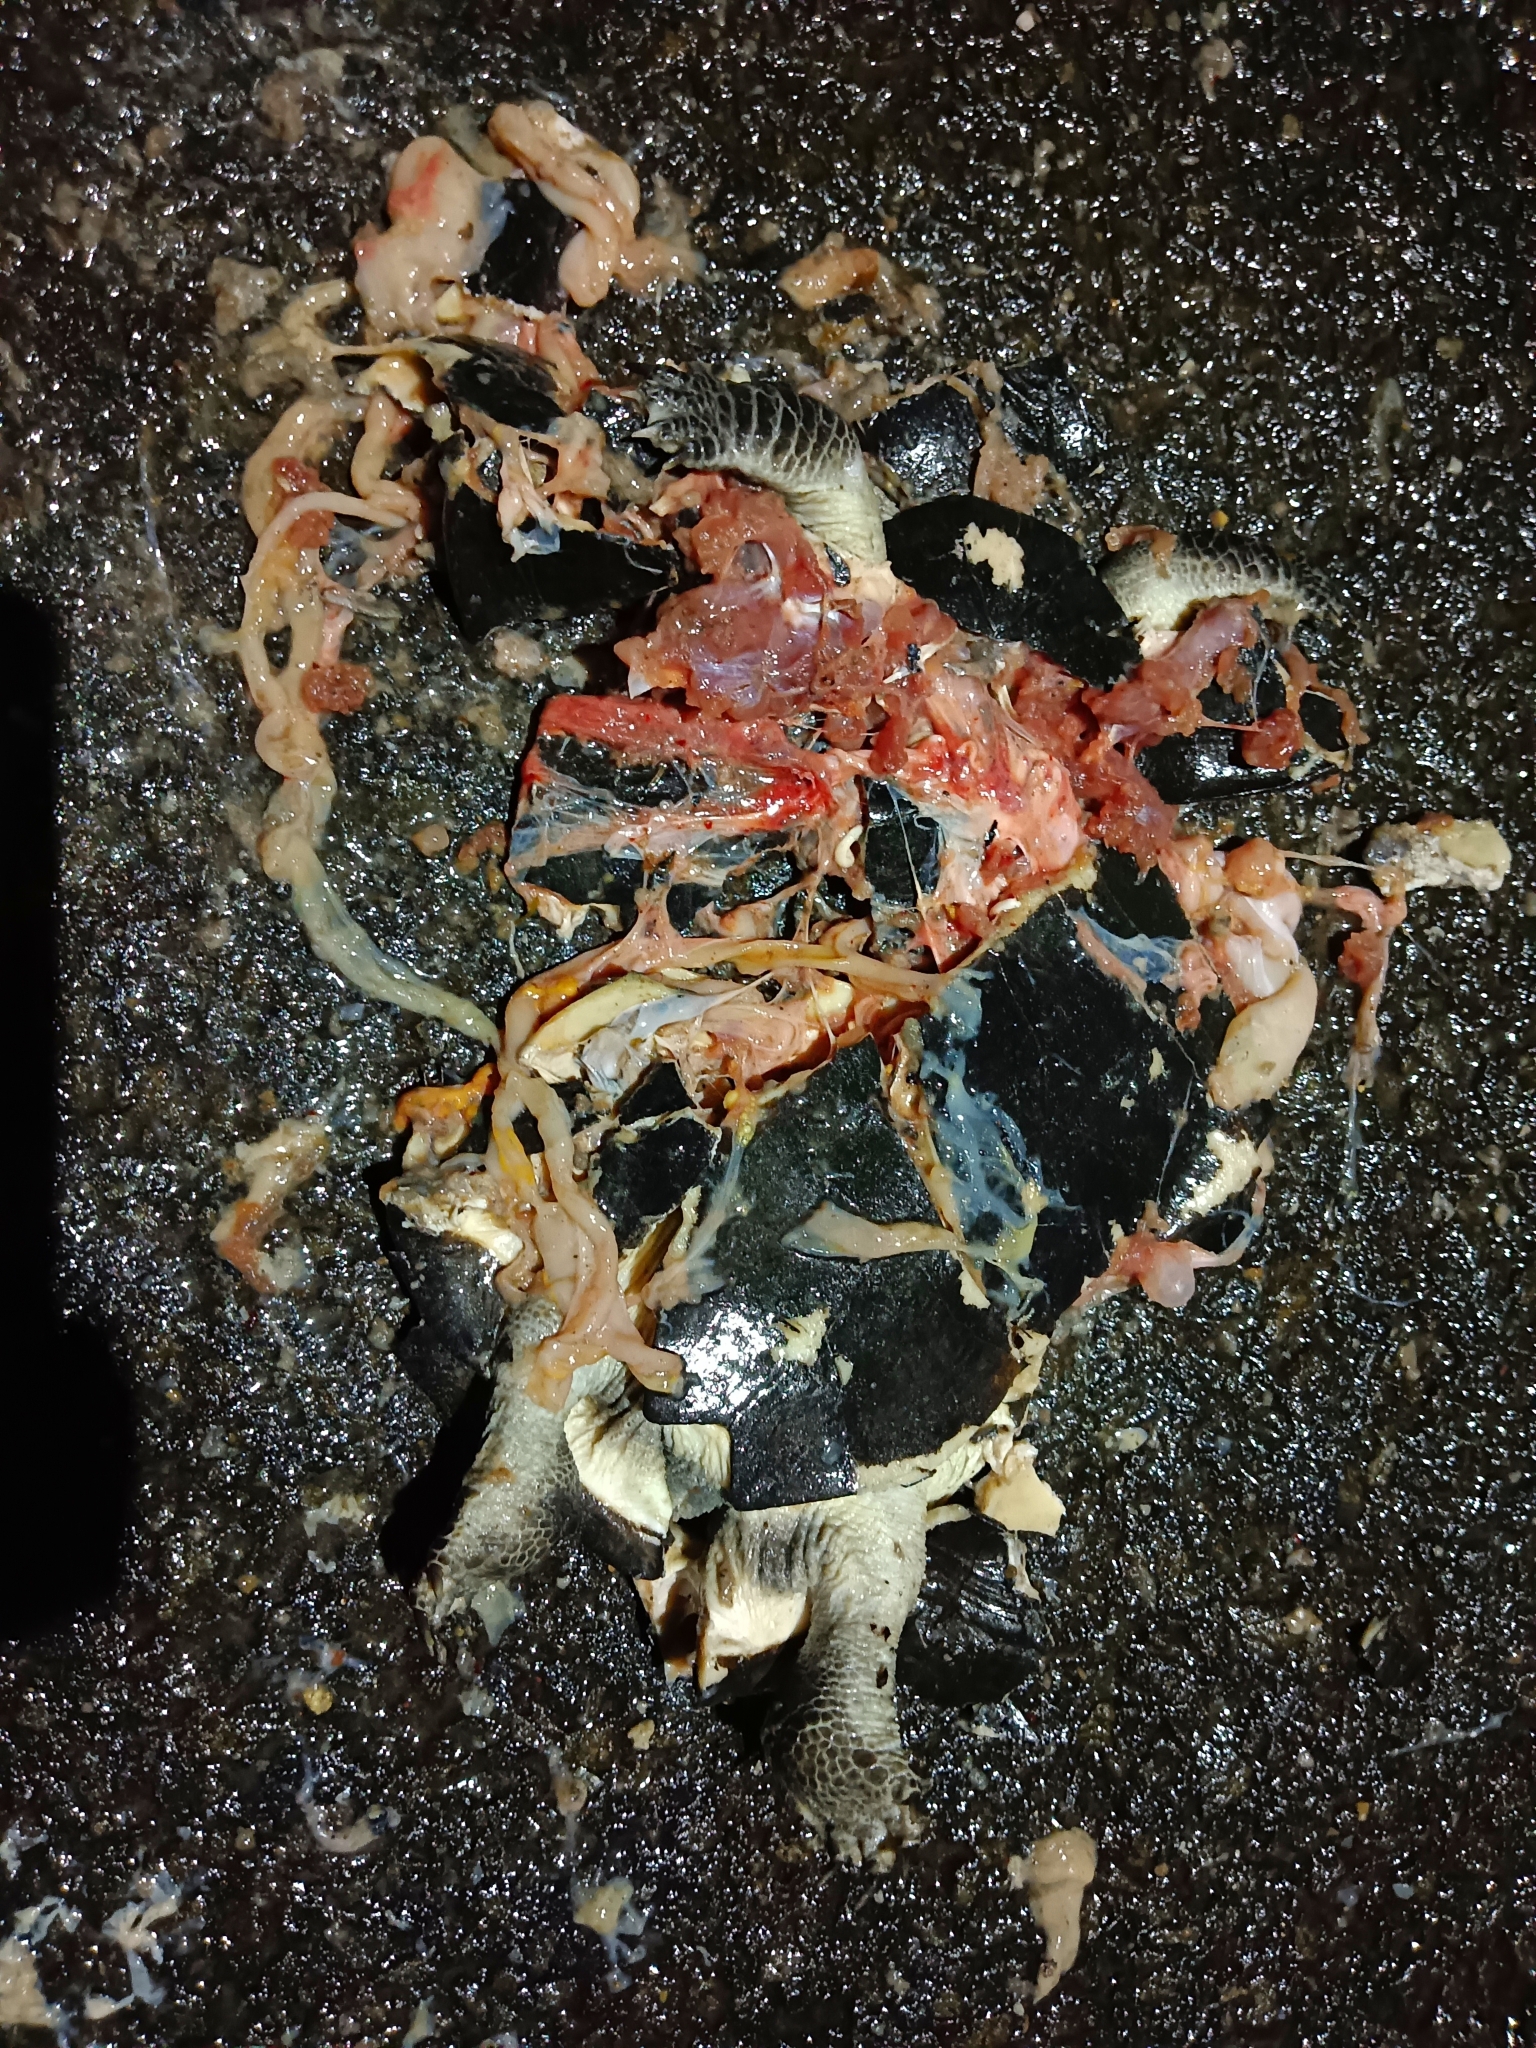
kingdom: Animalia
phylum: Chordata
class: Testudines
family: Geoemydidae
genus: Melanochelys
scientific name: Melanochelys trijuga
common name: Indian black turtle
